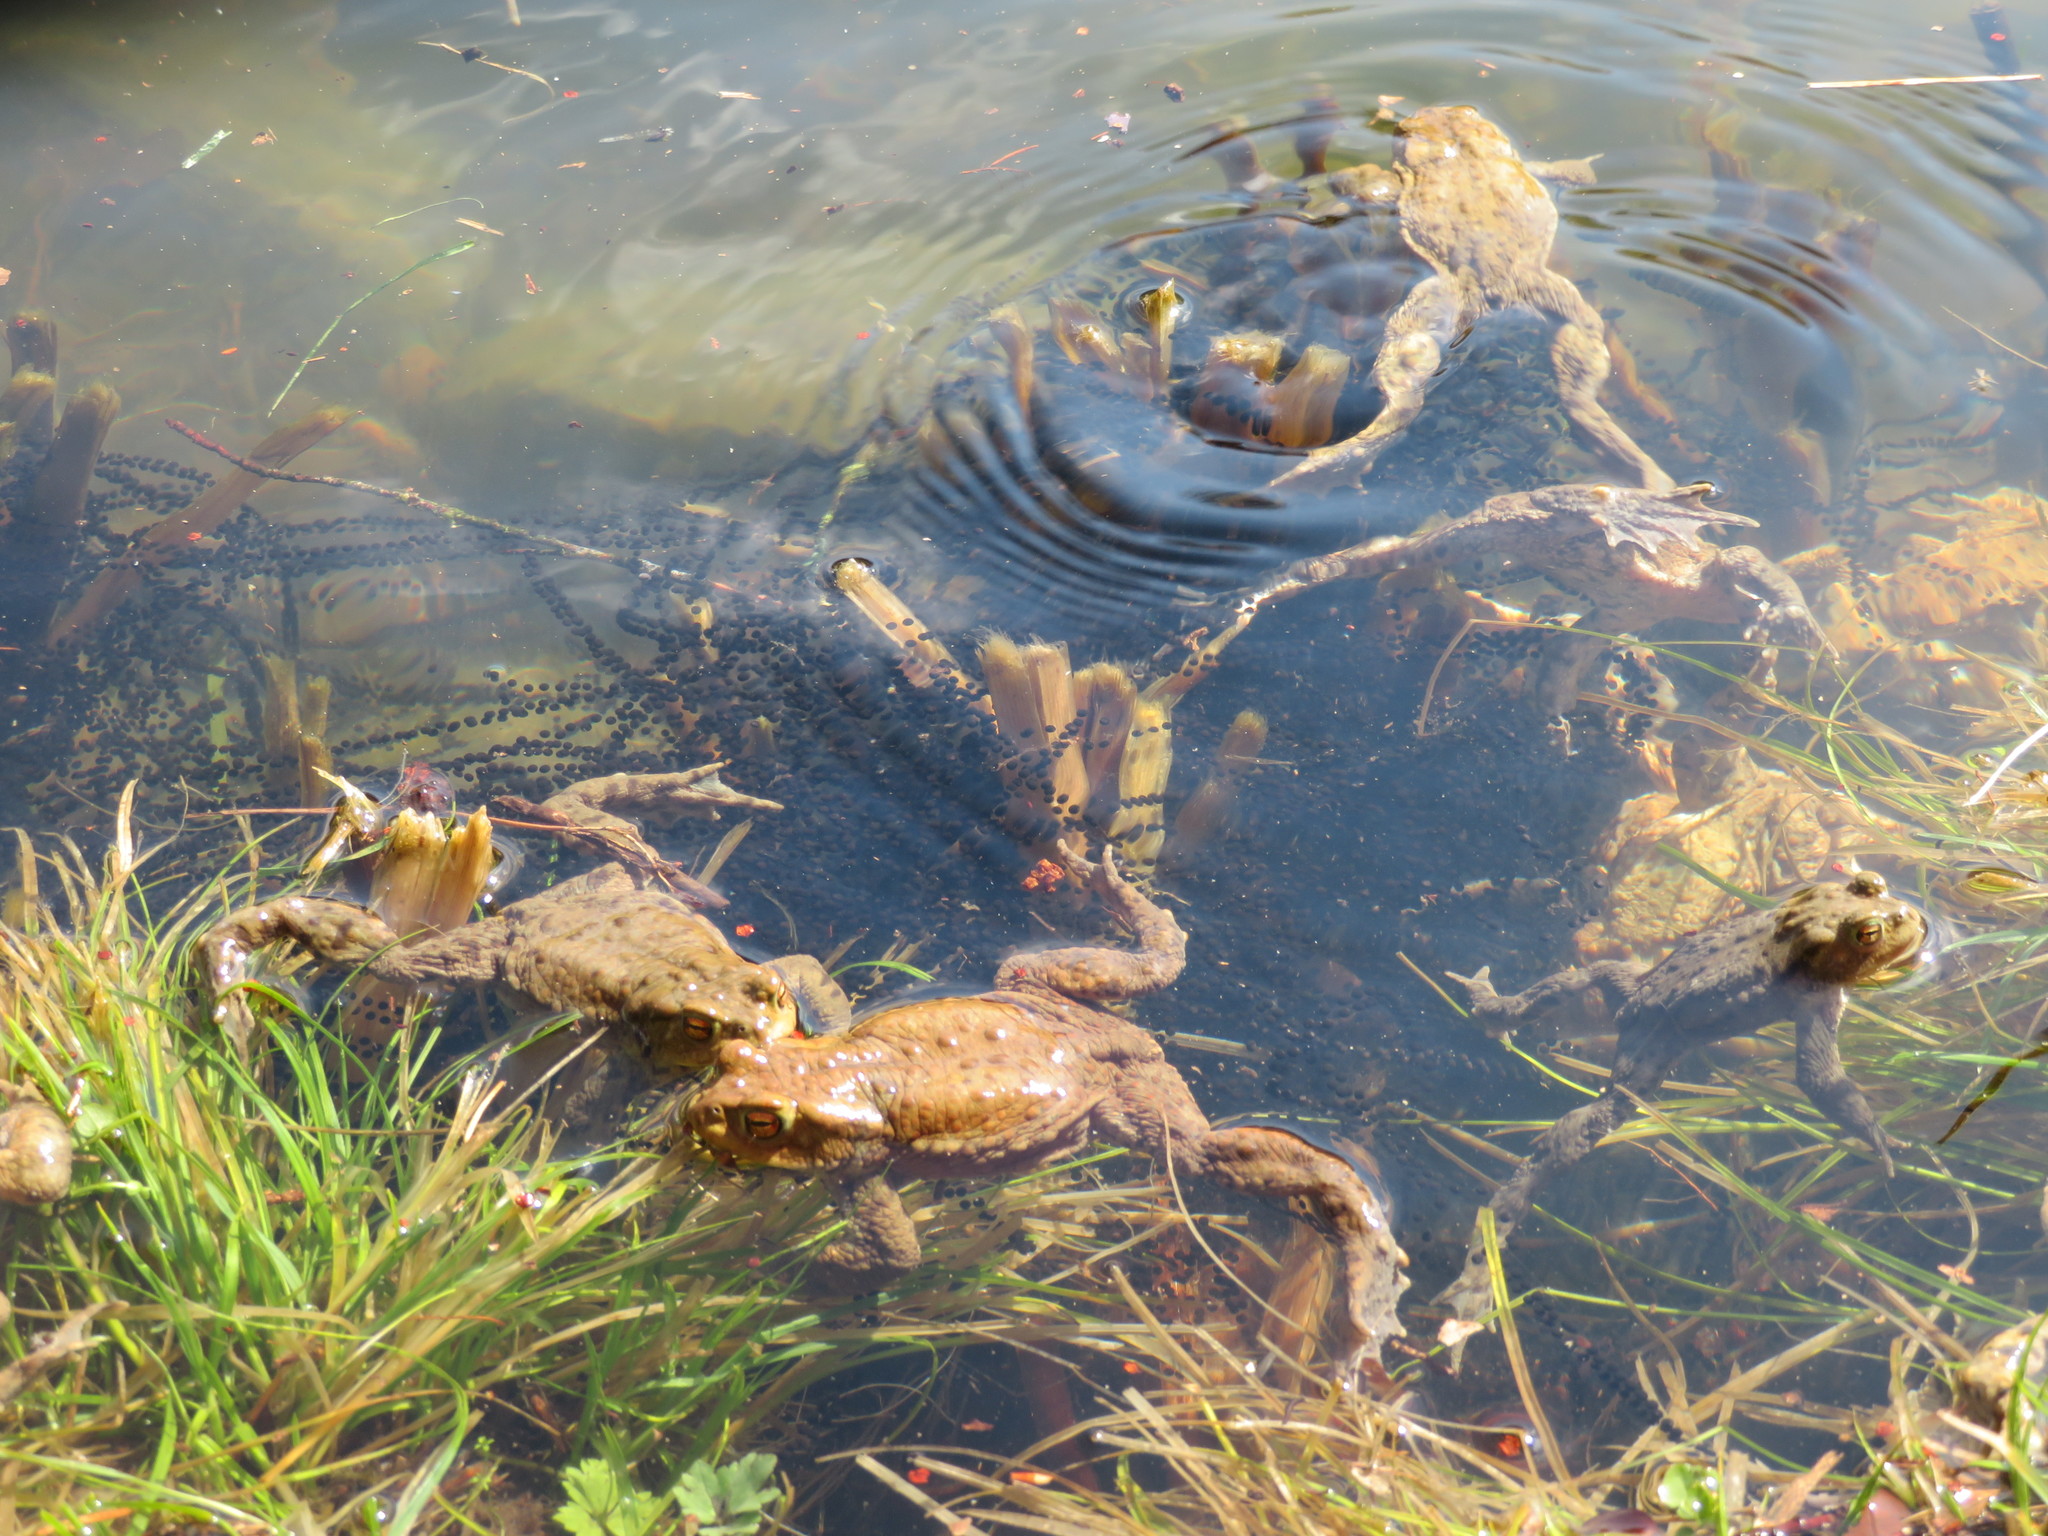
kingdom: Animalia
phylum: Chordata
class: Amphibia
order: Anura
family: Bufonidae
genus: Bufo
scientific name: Bufo bufo
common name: Common toad
